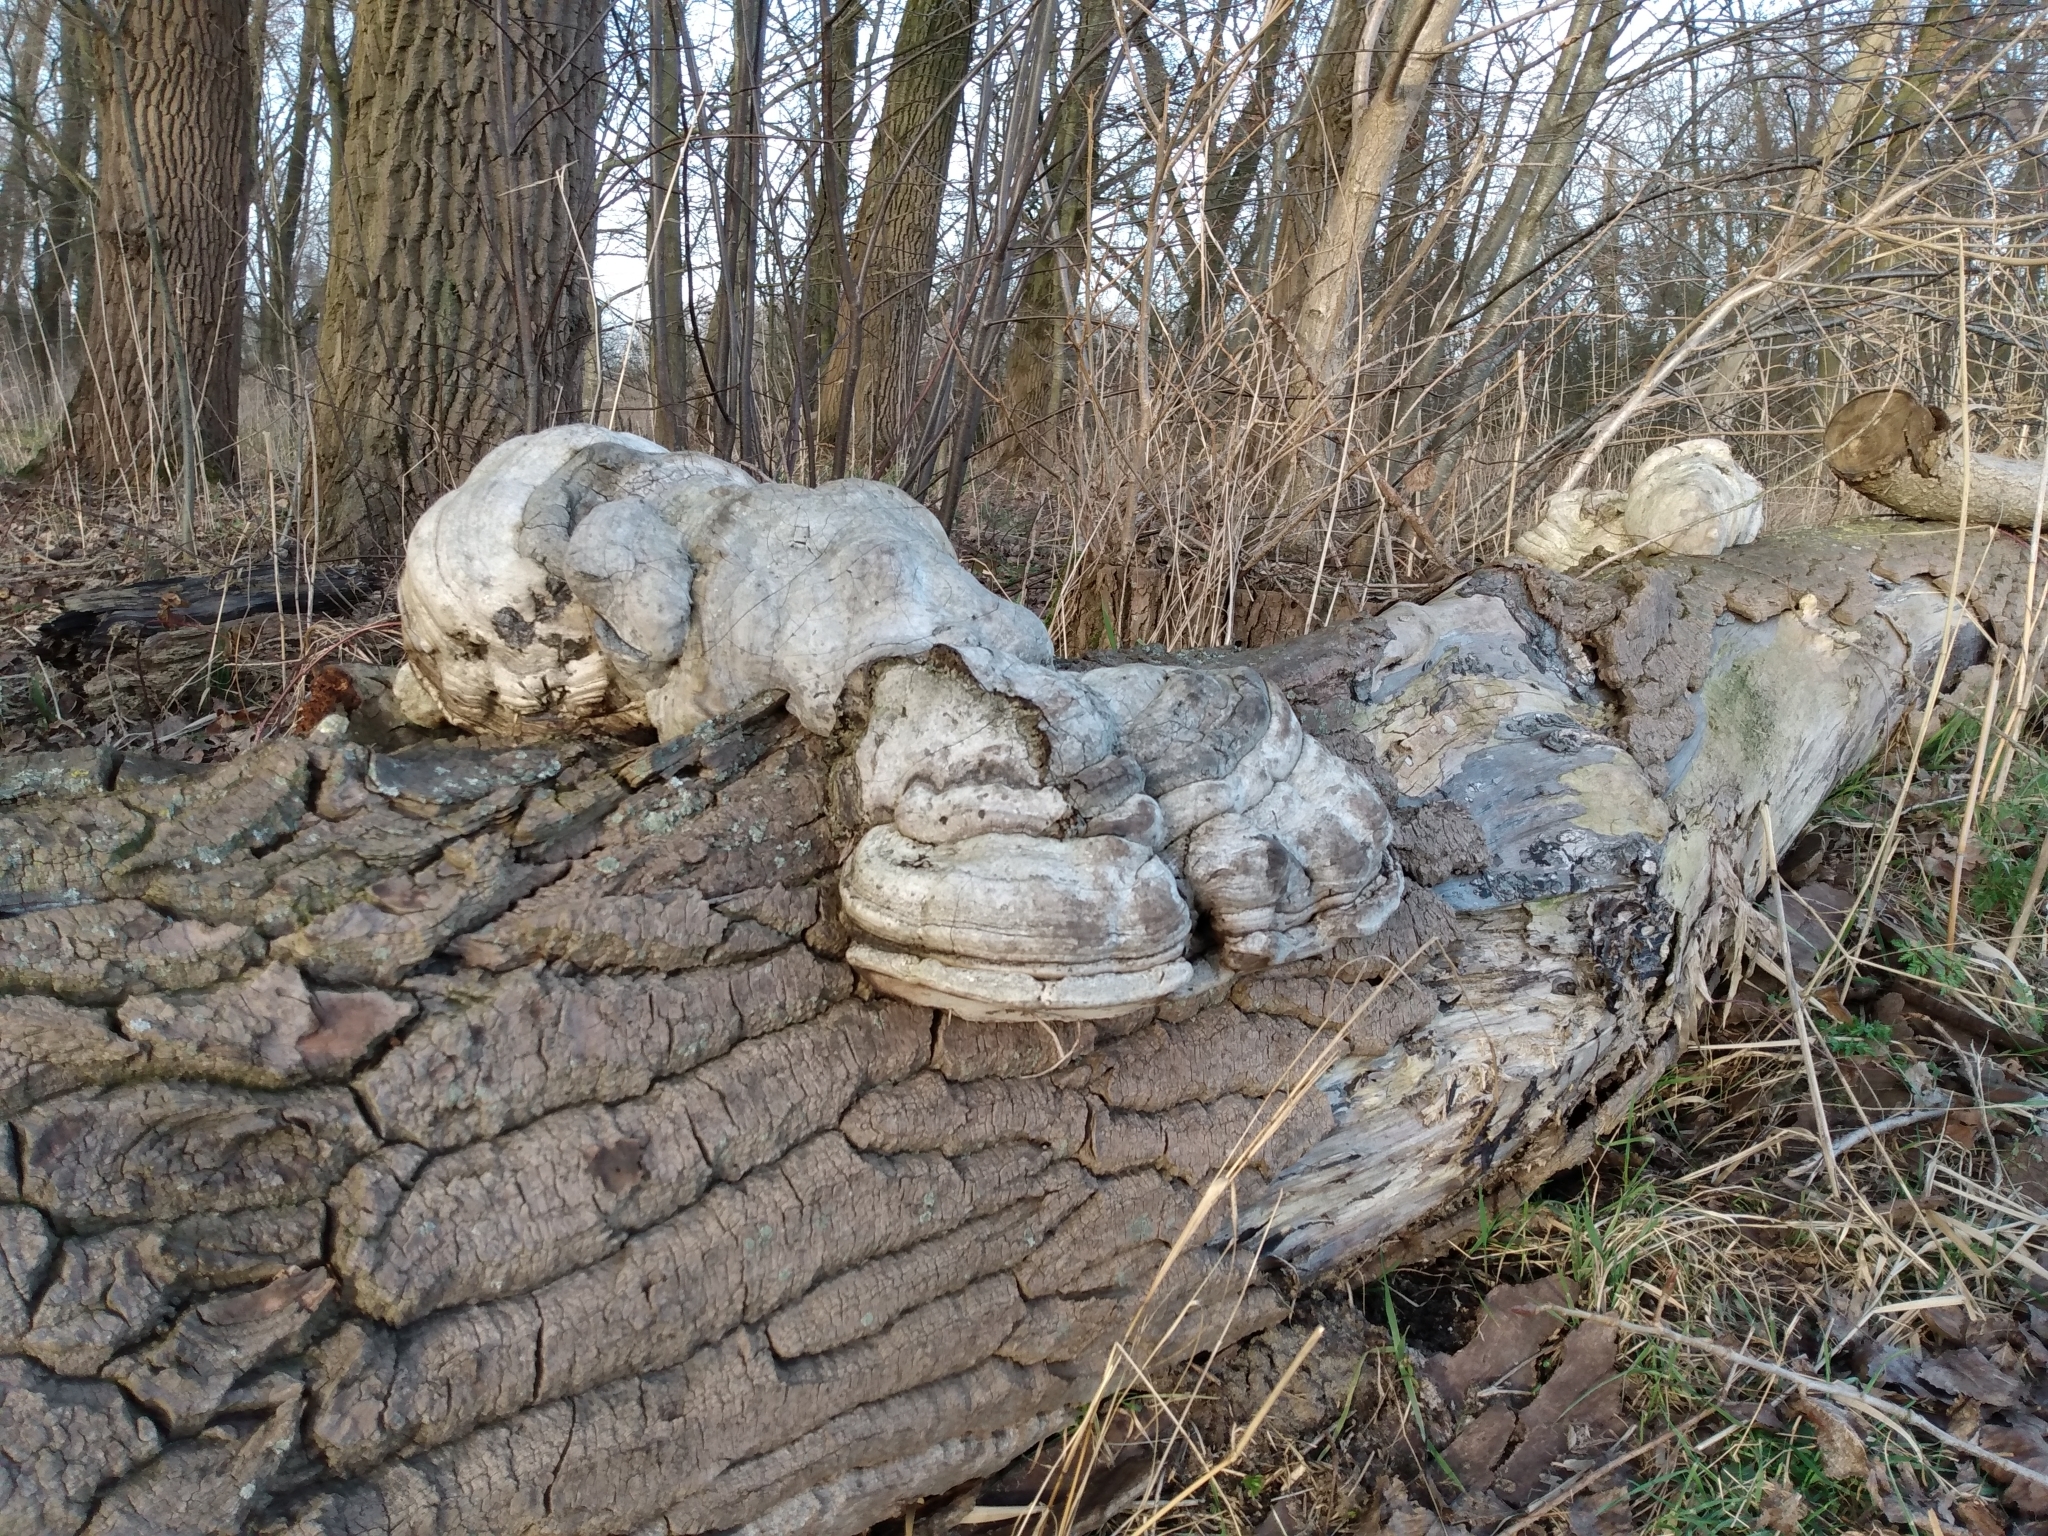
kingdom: Fungi
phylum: Basidiomycota
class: Agaricomycetes
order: Polyporales
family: Polyporaceae
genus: Fomes
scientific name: Fomes fomentarius
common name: Hoof fungus
